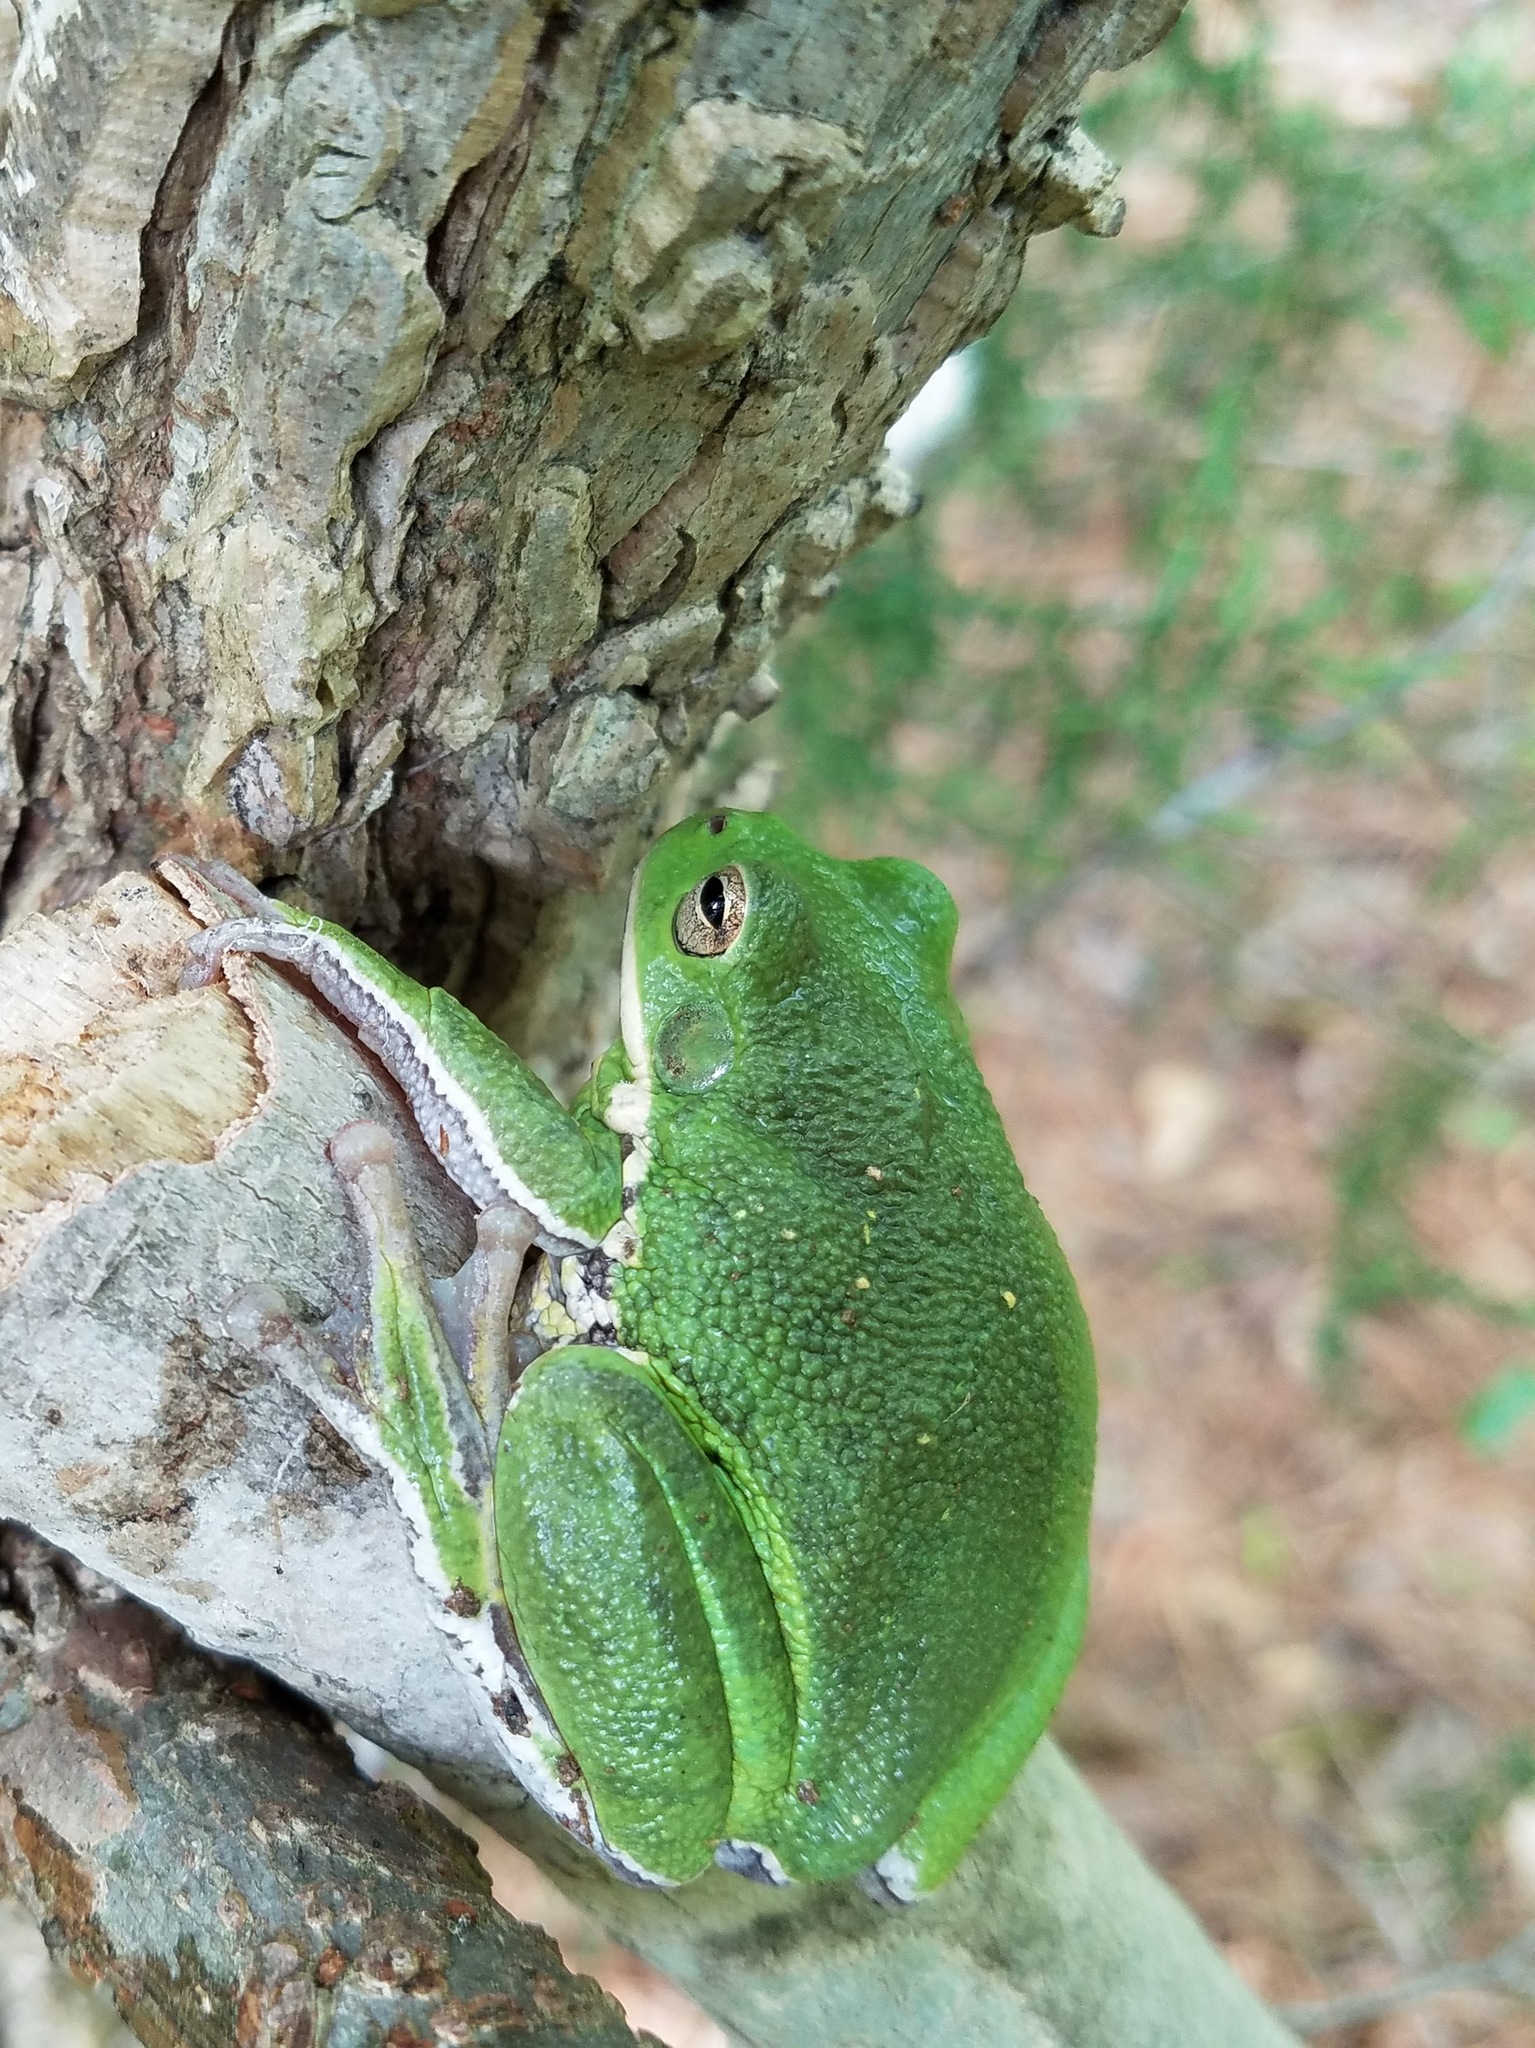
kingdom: Animalia
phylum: Chordata
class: Amphibia
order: Anura
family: Hylidae
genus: Dryophytes
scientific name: Dryophytes gratiosus
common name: Barking treefrog
